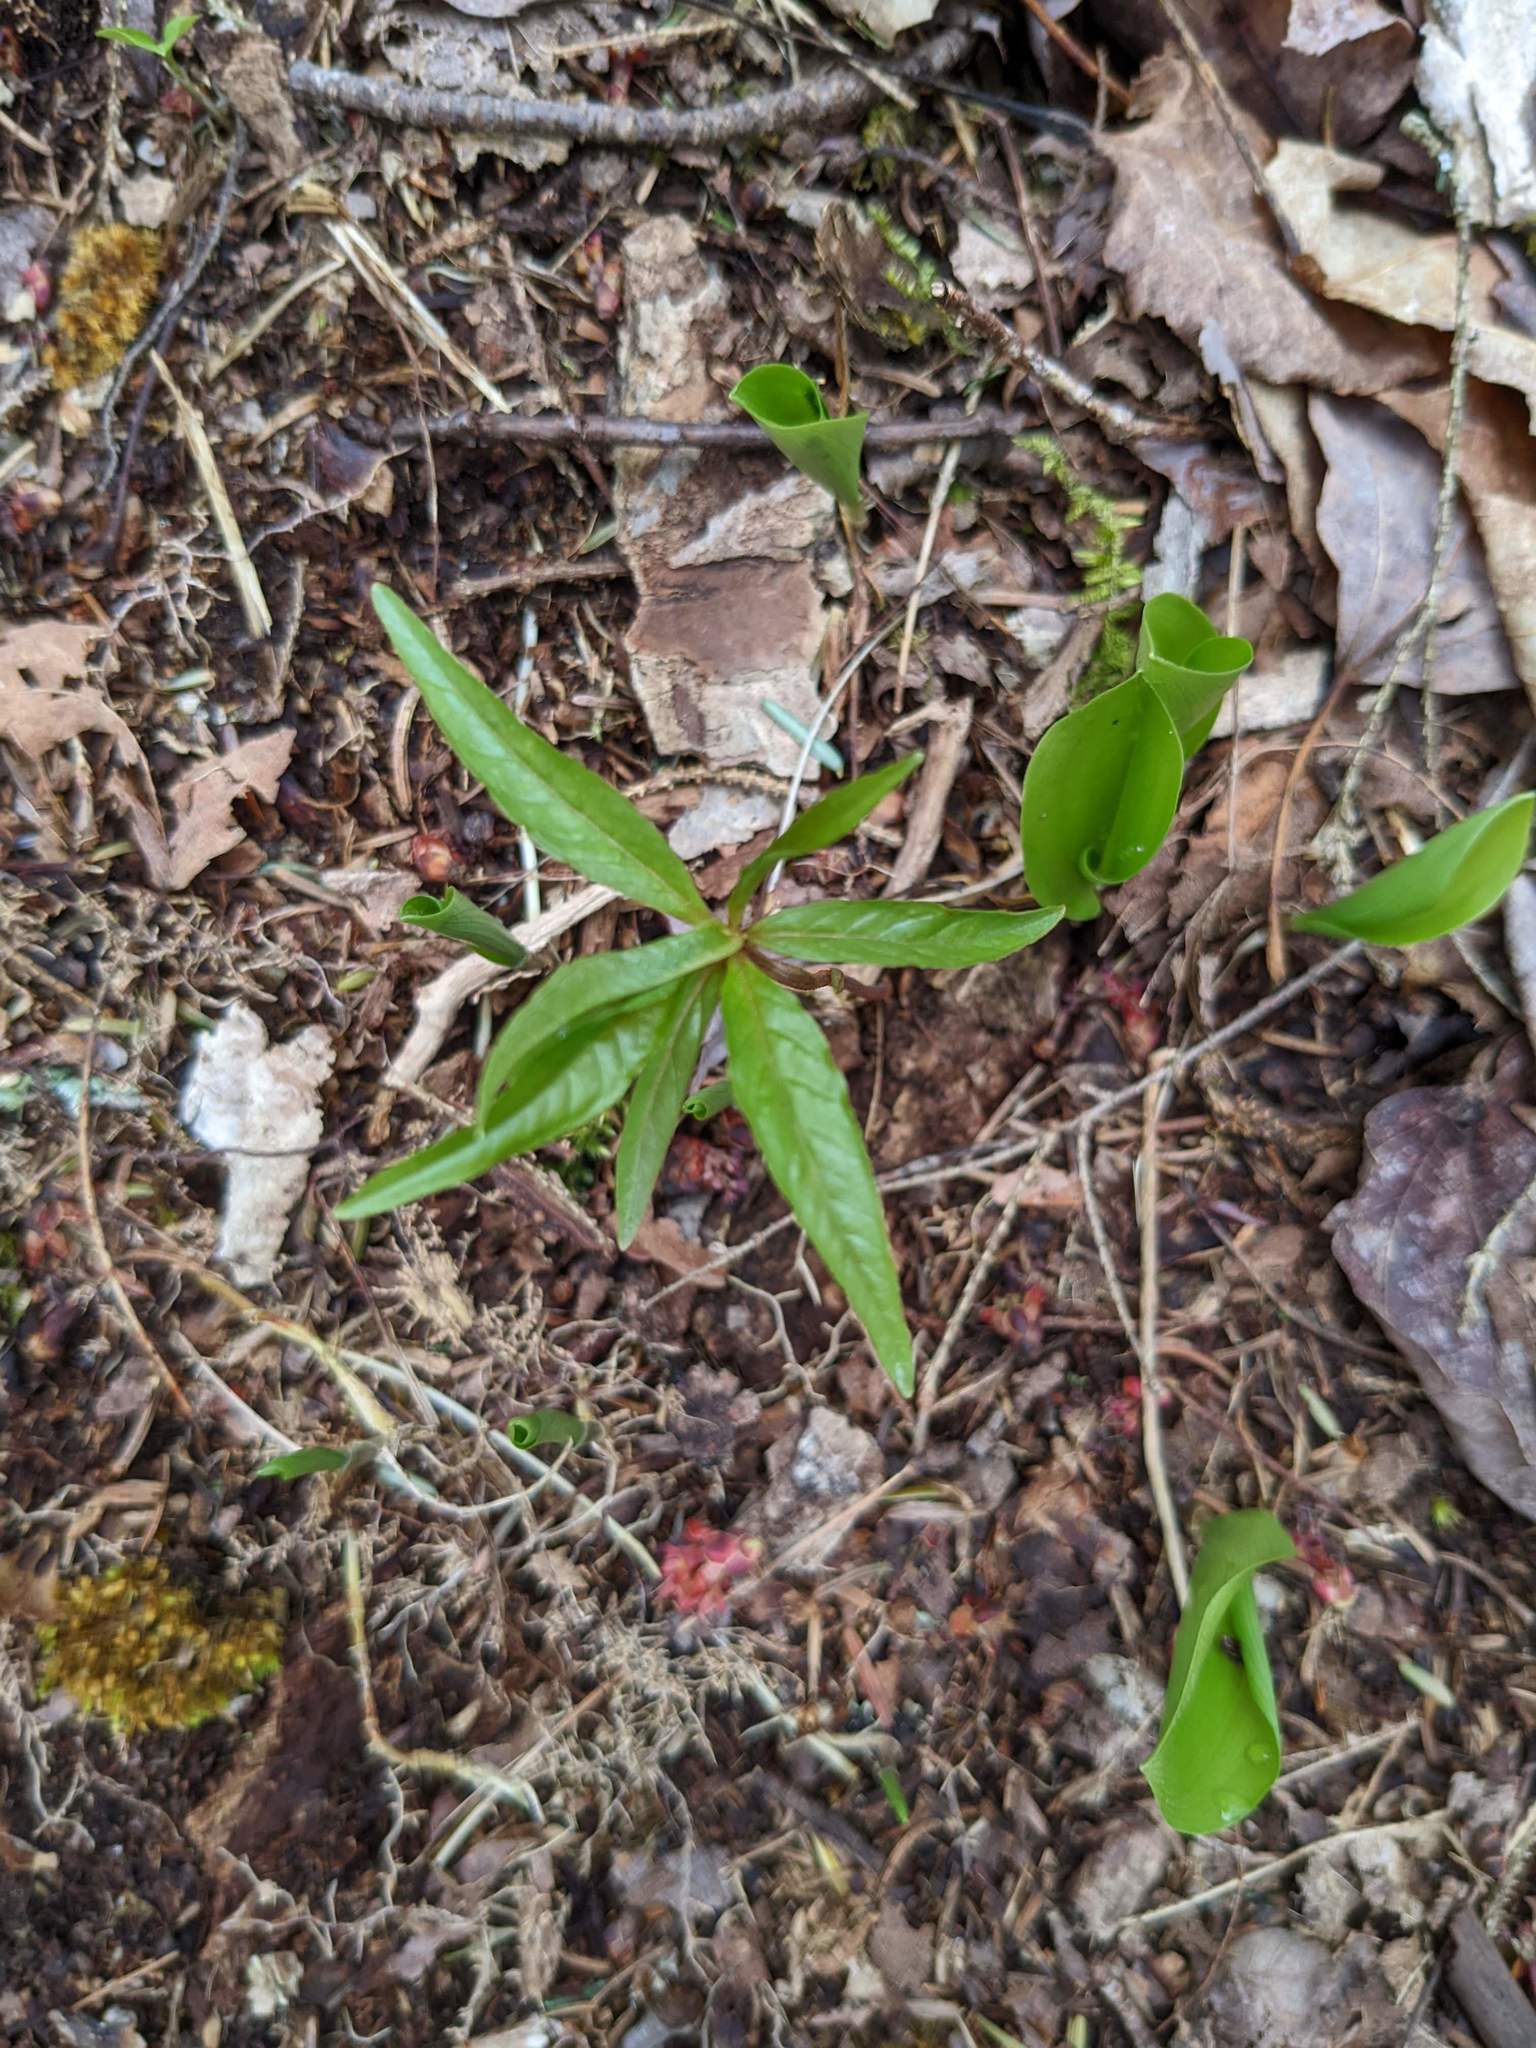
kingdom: Plantae
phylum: Tracheophyta
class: Magnoliopsida
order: Ericales
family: Primulaceae
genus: Lysimachia
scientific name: Lysimachia borealis
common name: American starflower
